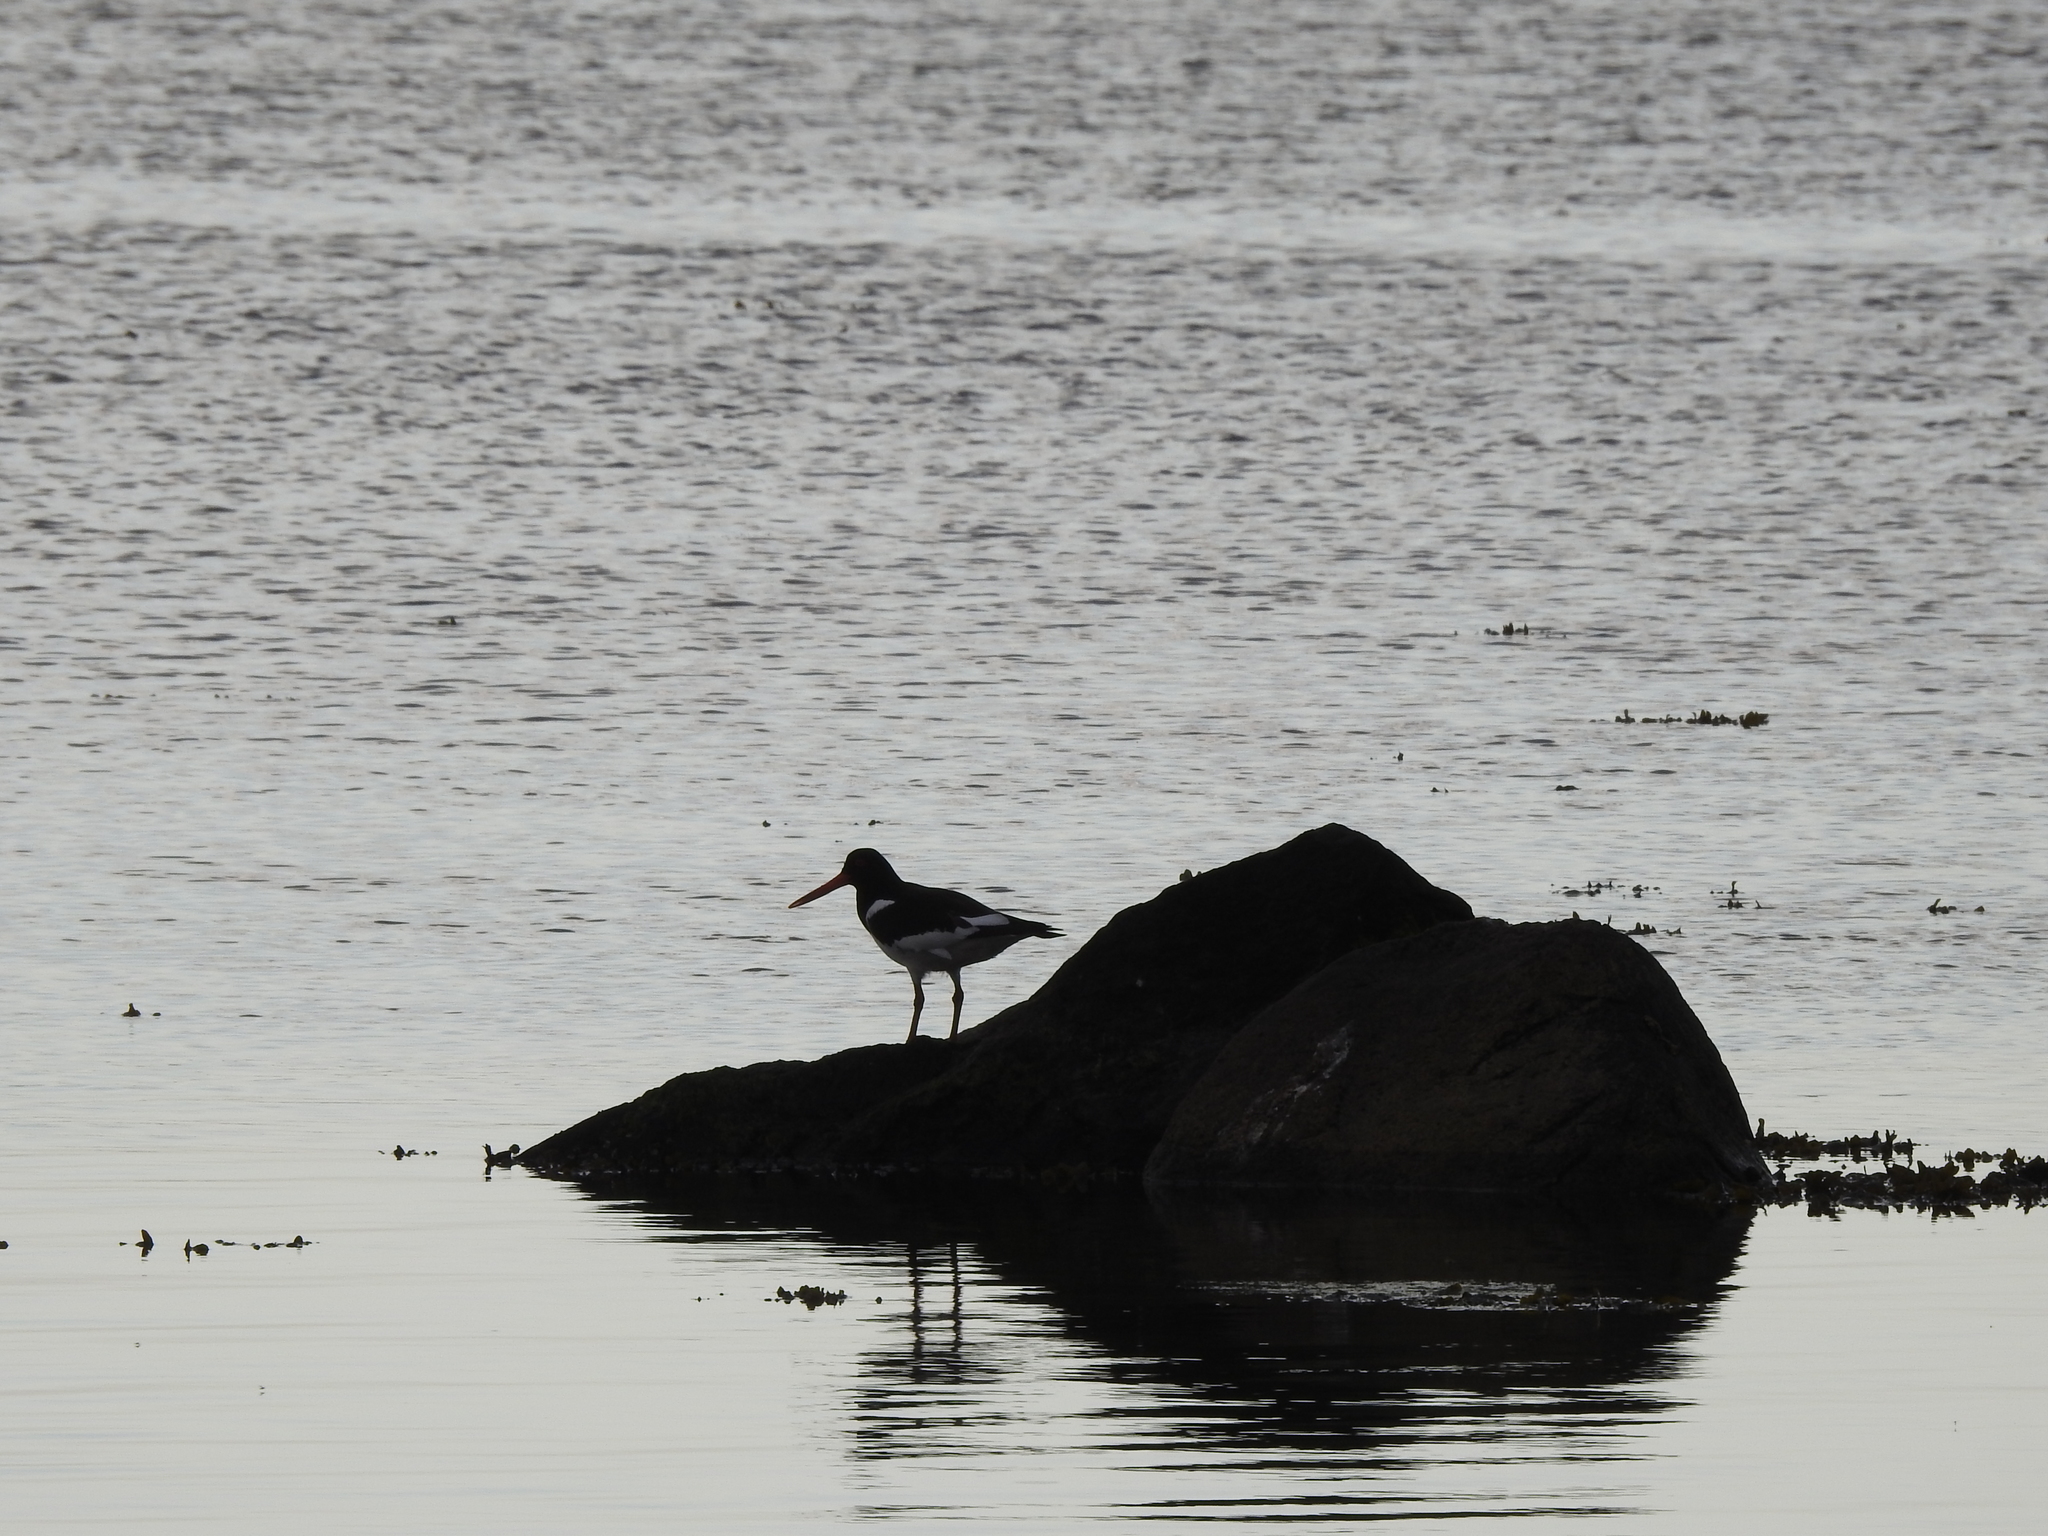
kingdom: Animalia
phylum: Chordata
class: Aves
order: Charadriiformes
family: Haematopodidae
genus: Haematopus
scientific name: Haematopus ostralegus
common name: Eurasian oystercatcher
